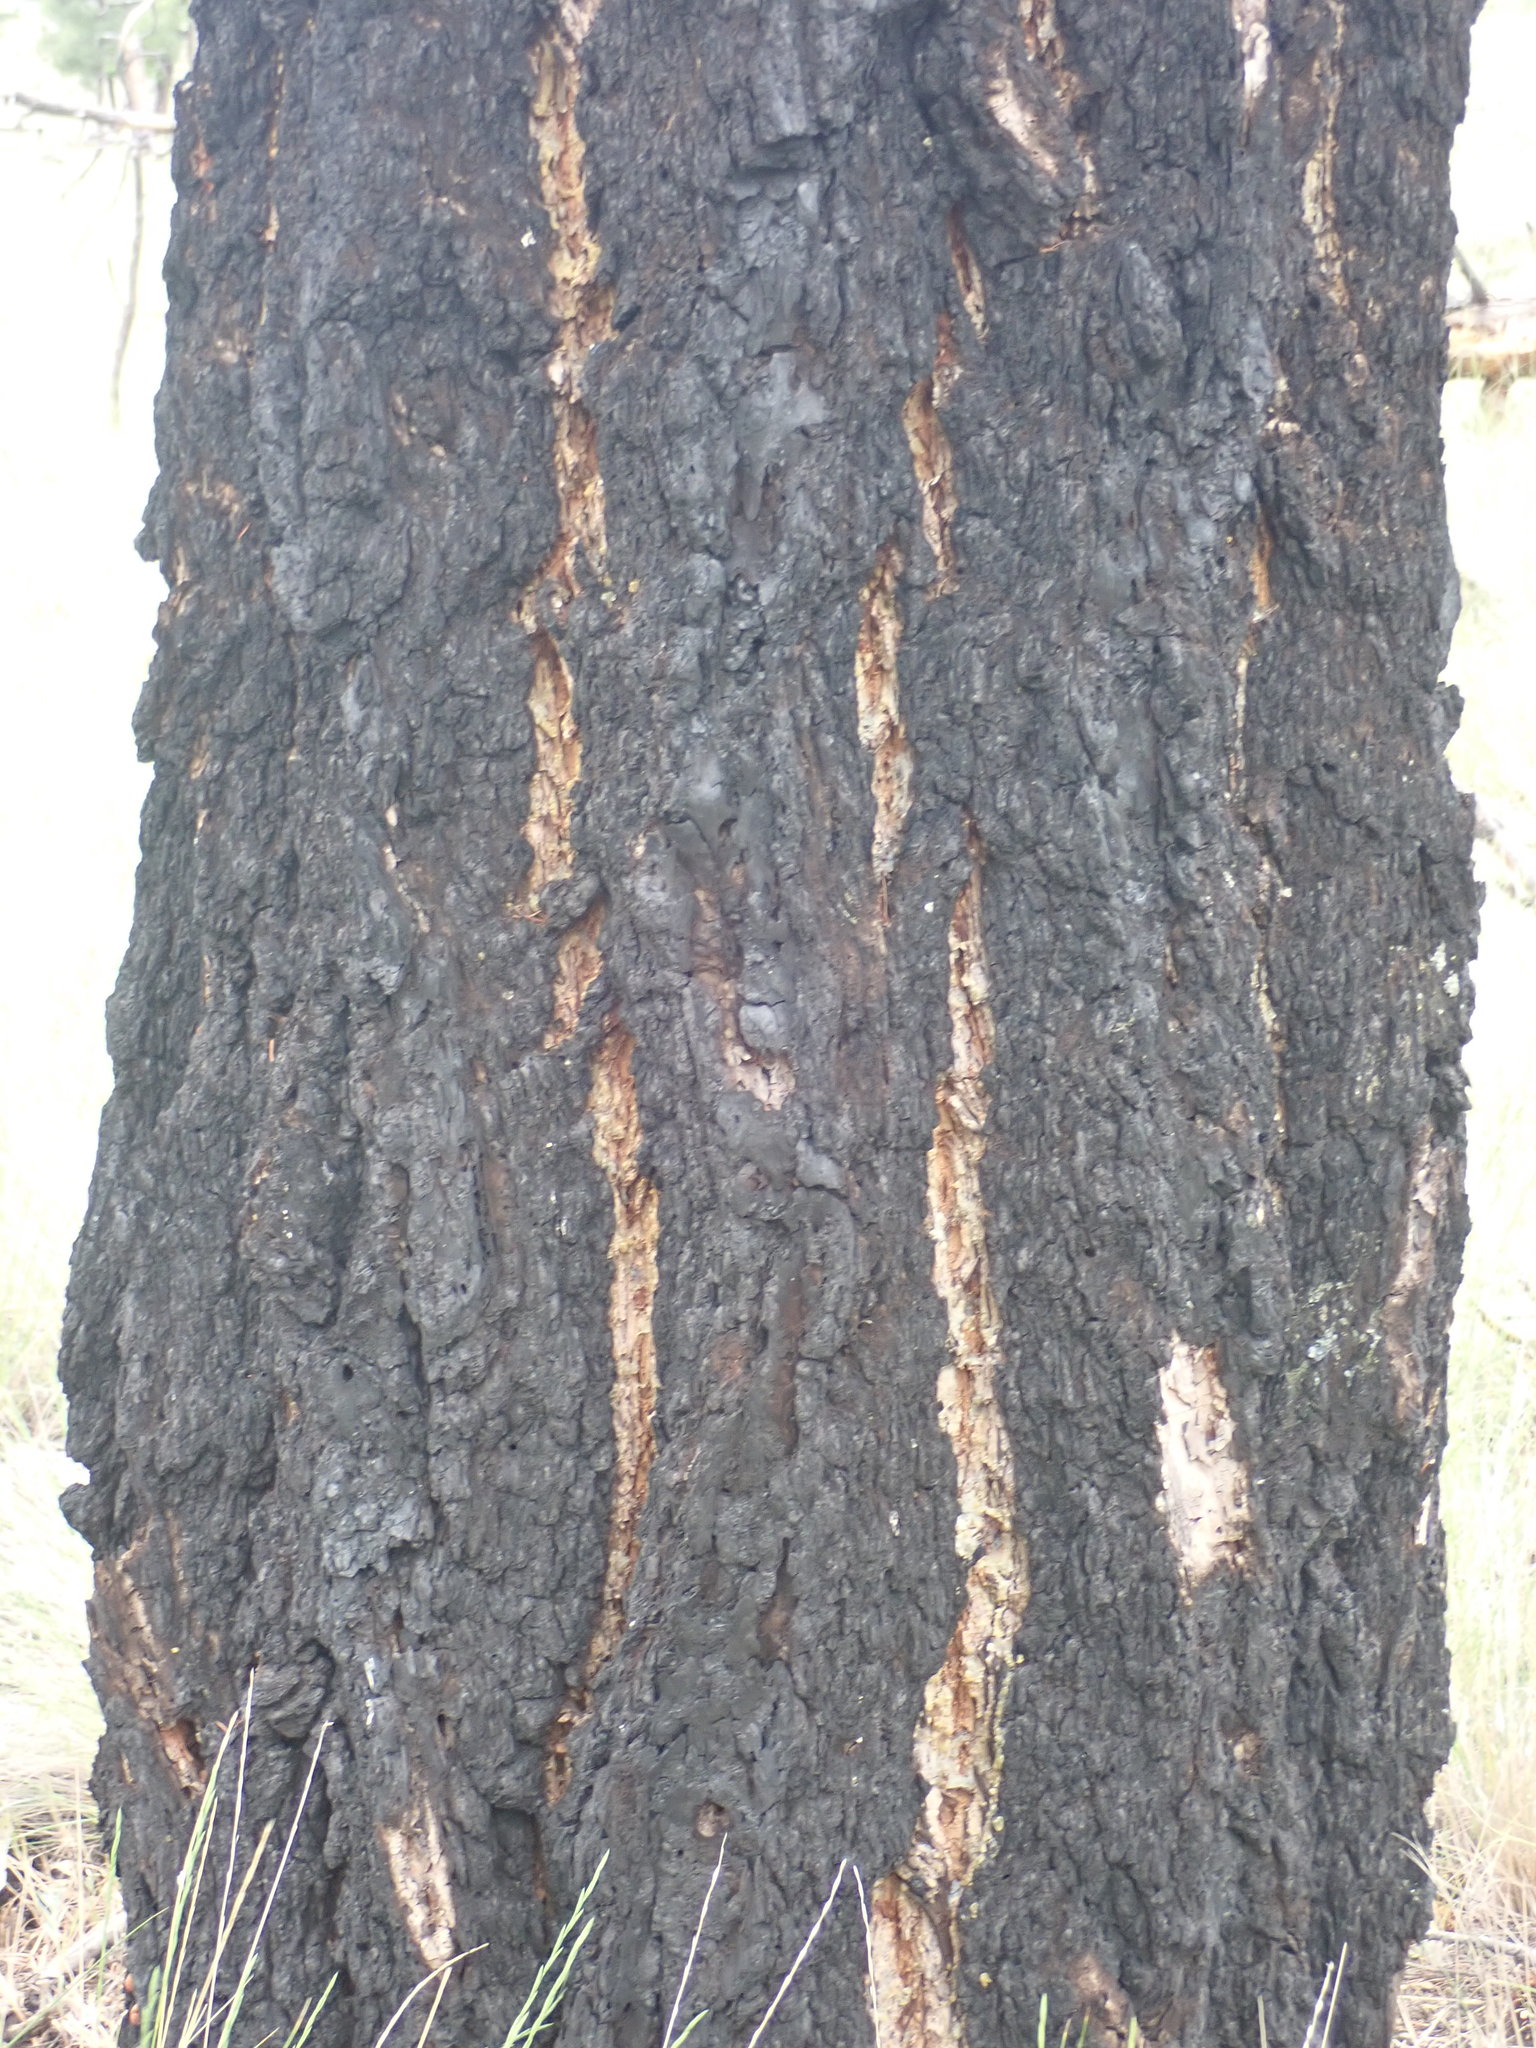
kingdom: Plantae
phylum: Tracheophyta
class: Pinopsida
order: Pinales
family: Pinaceae
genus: Pseudotsuga
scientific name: Pseudotsuga menziesii
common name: Douglas fir
